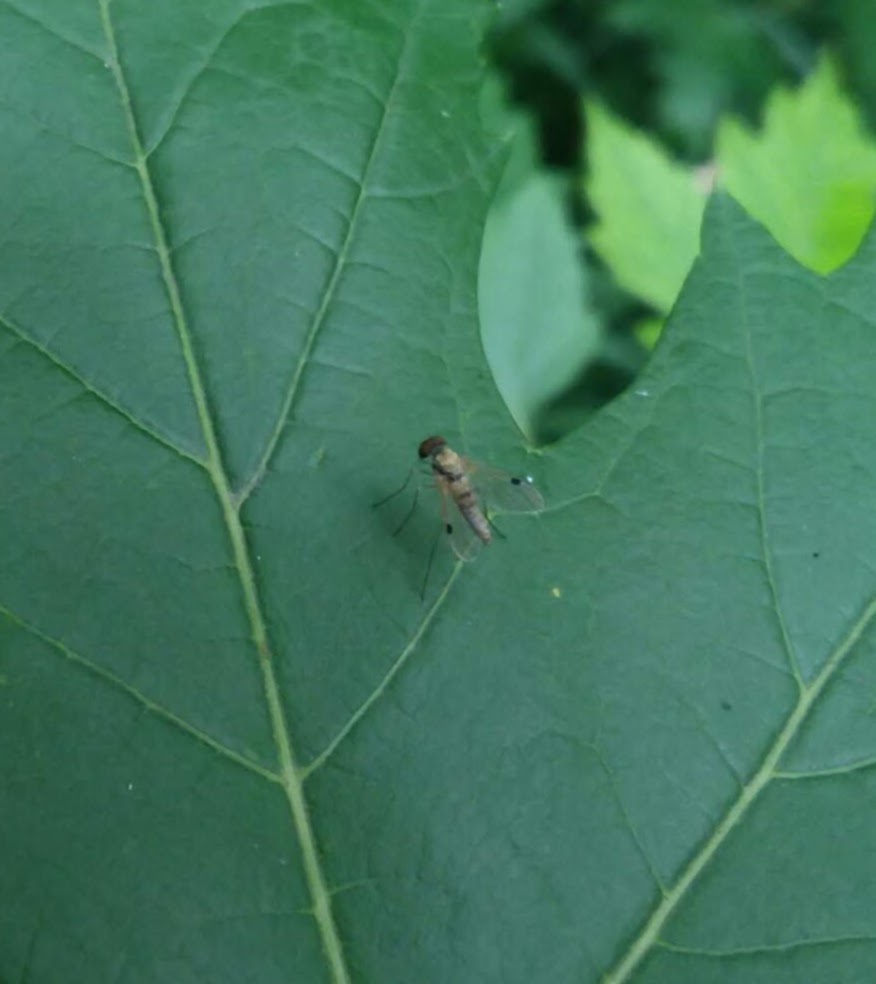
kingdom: Animalia
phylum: Arthropoda
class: Insecta
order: Diptera
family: Rhagionidae
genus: Chrysopilus
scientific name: Chrysopilus modestus
